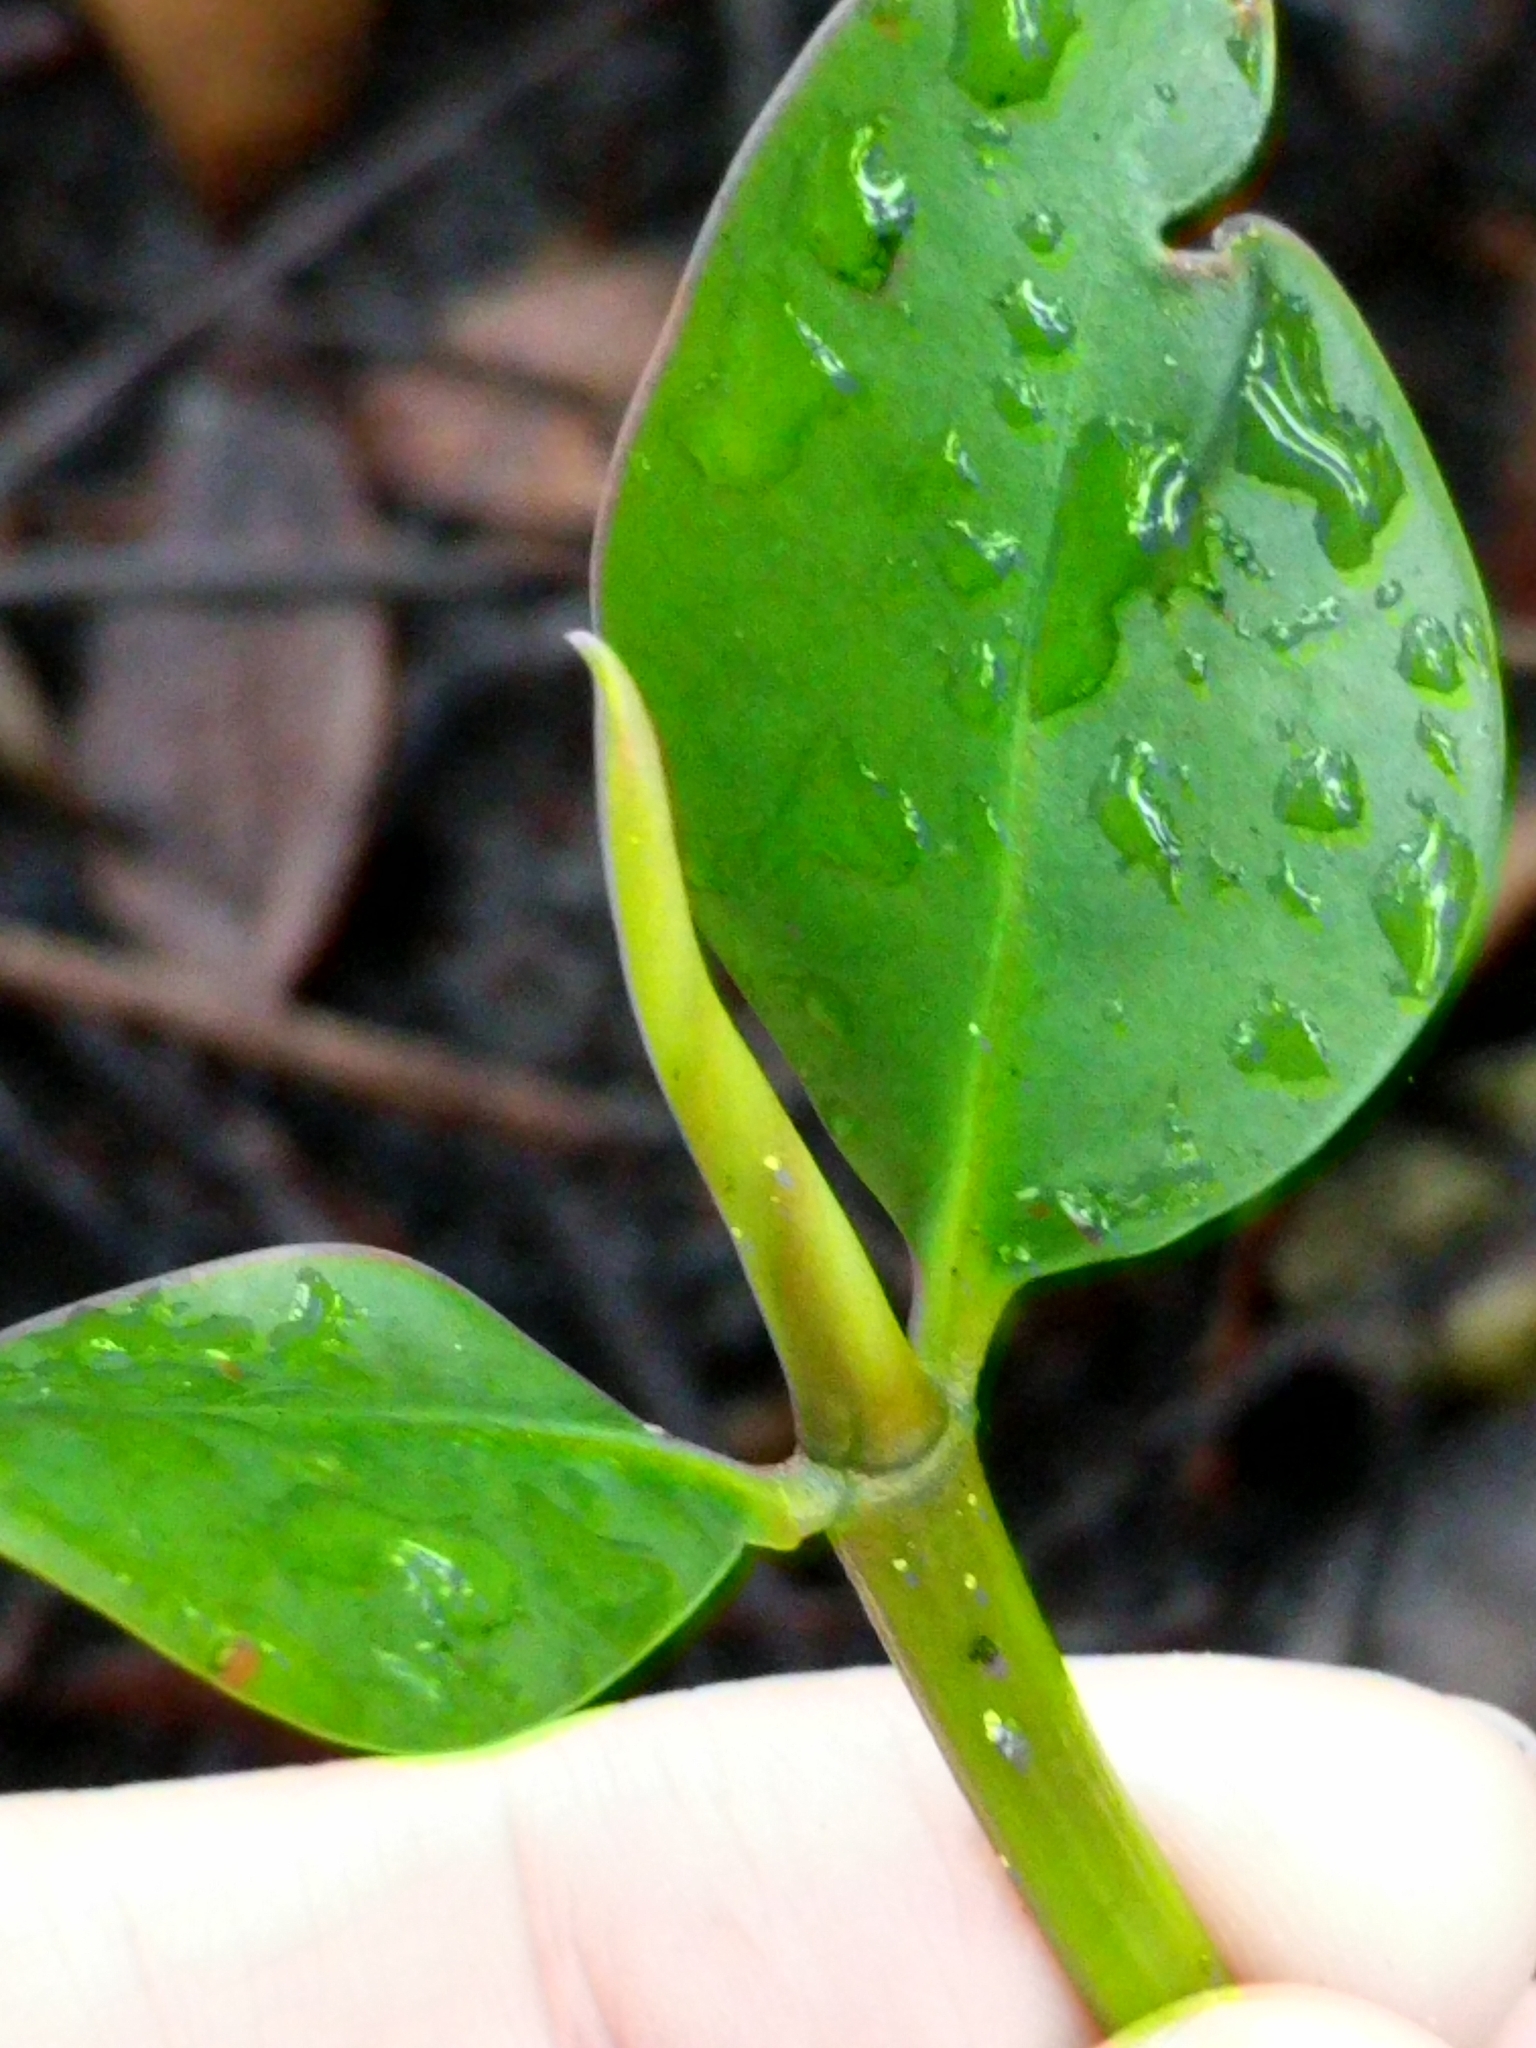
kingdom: Plantae
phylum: Tracheophyta
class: Magnoliopsida
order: Malpighiales
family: Rhizophoraceae
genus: Rhizophora
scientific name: Rhizophora mangle
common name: Red mangrove
